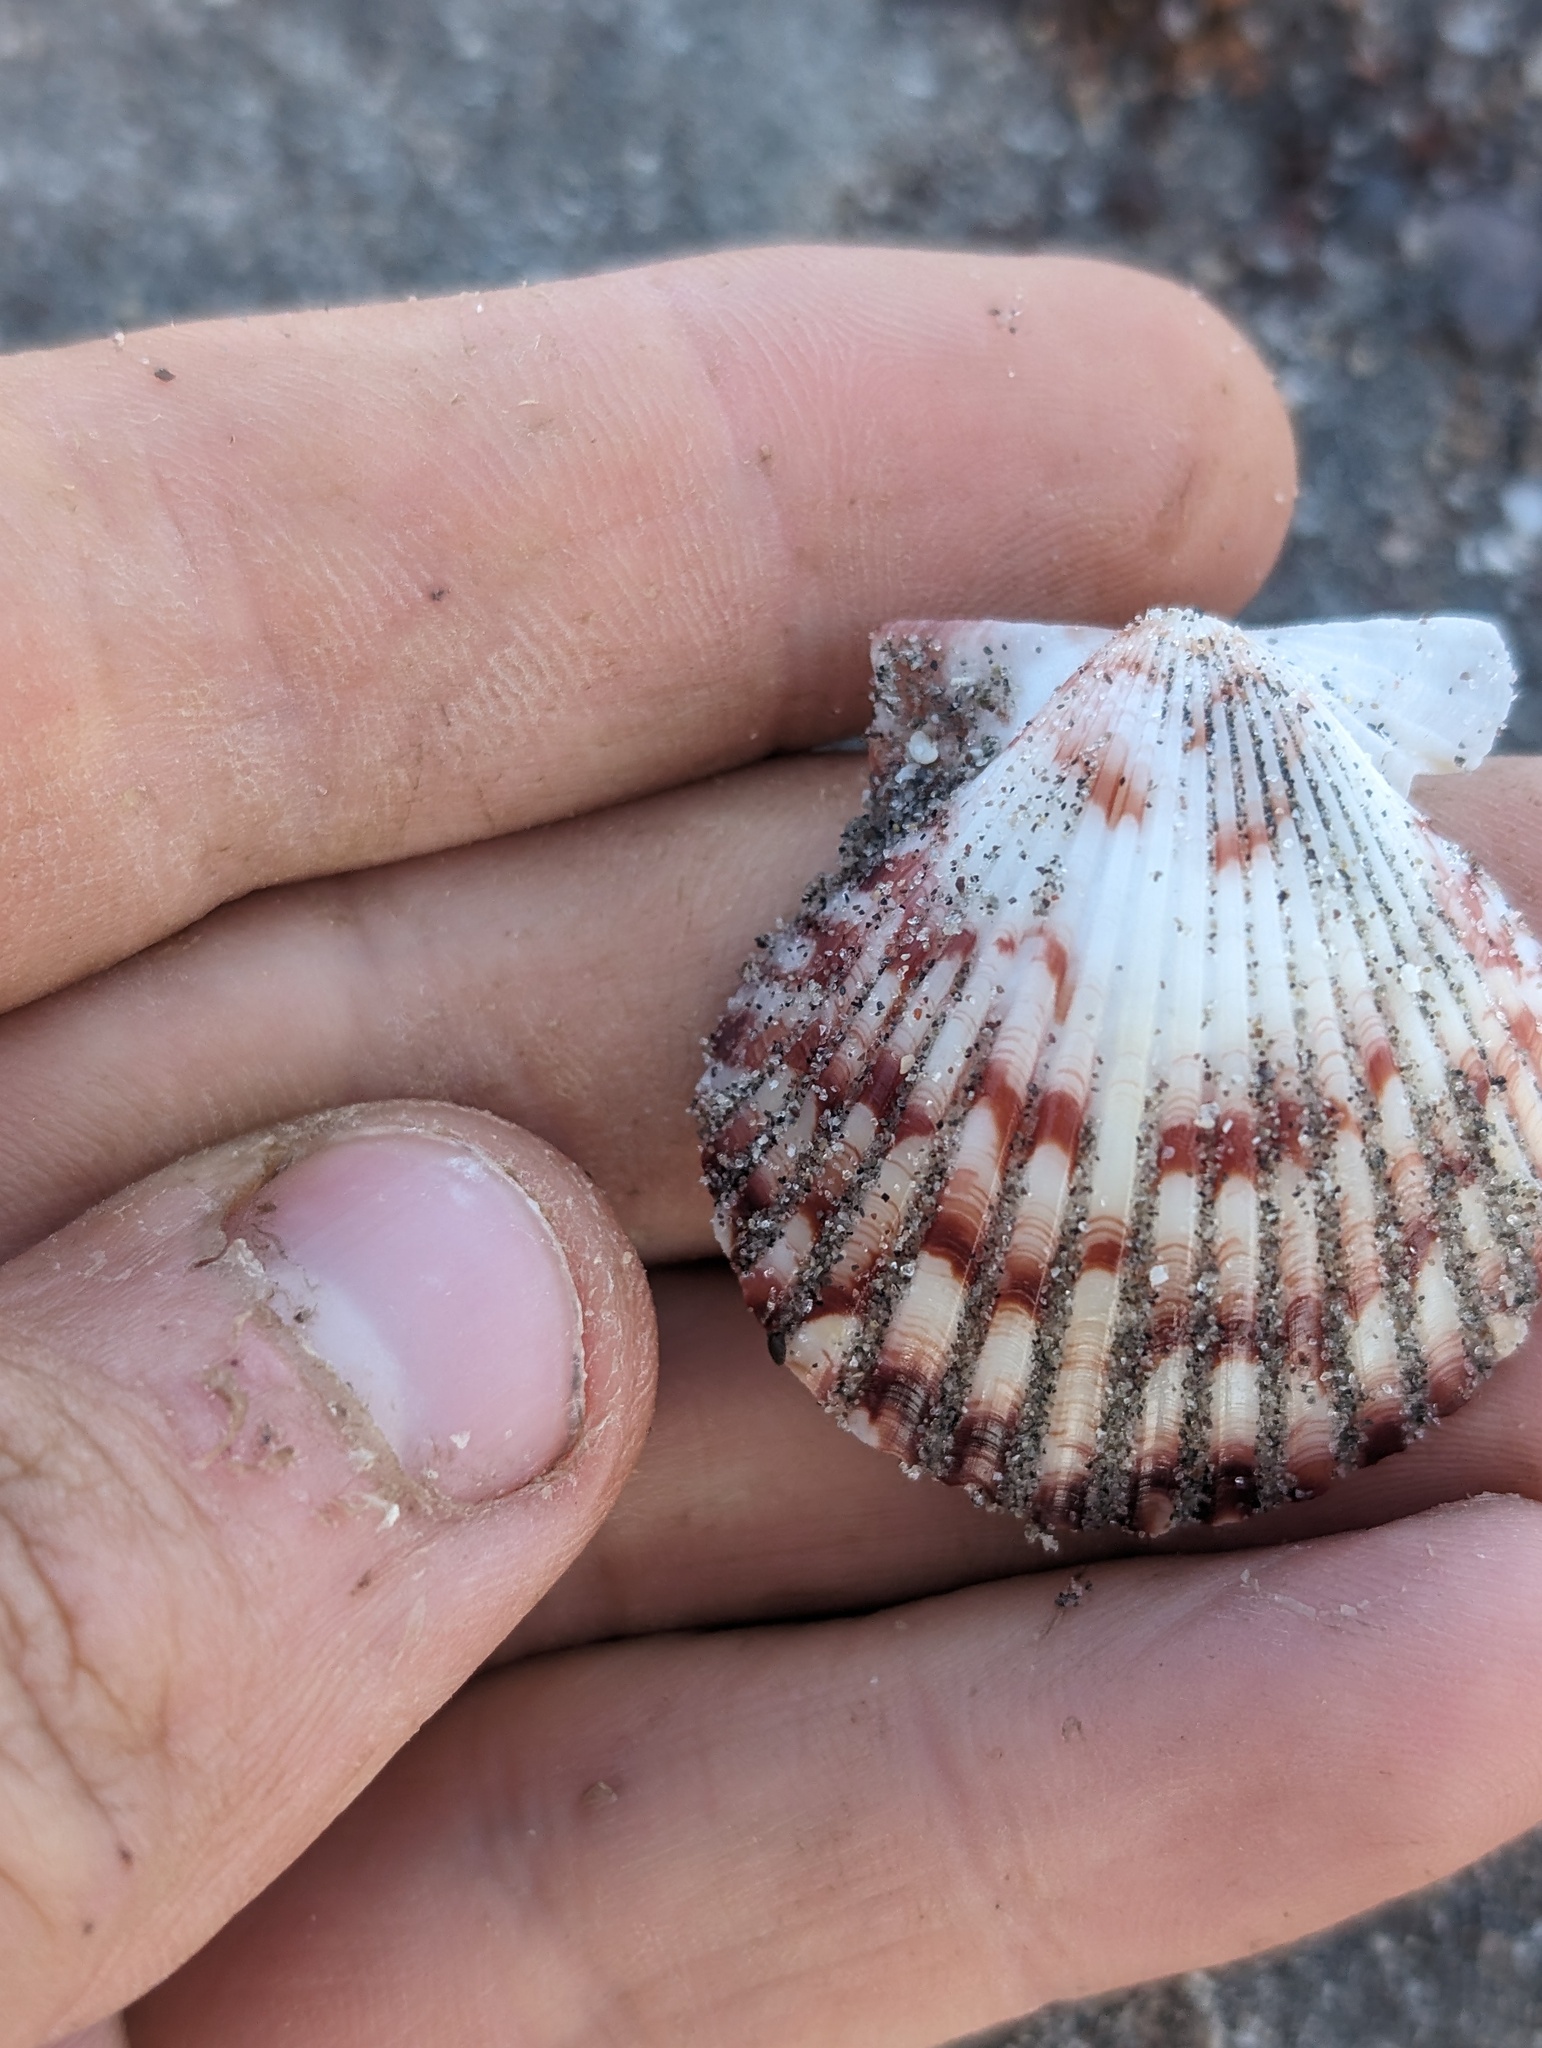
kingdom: Animalia
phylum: Mollusca
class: Bivalvia
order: Pectinida
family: Pectinidae
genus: Argopecten
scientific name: Argopecten ventricosus
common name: Catarina scallop
